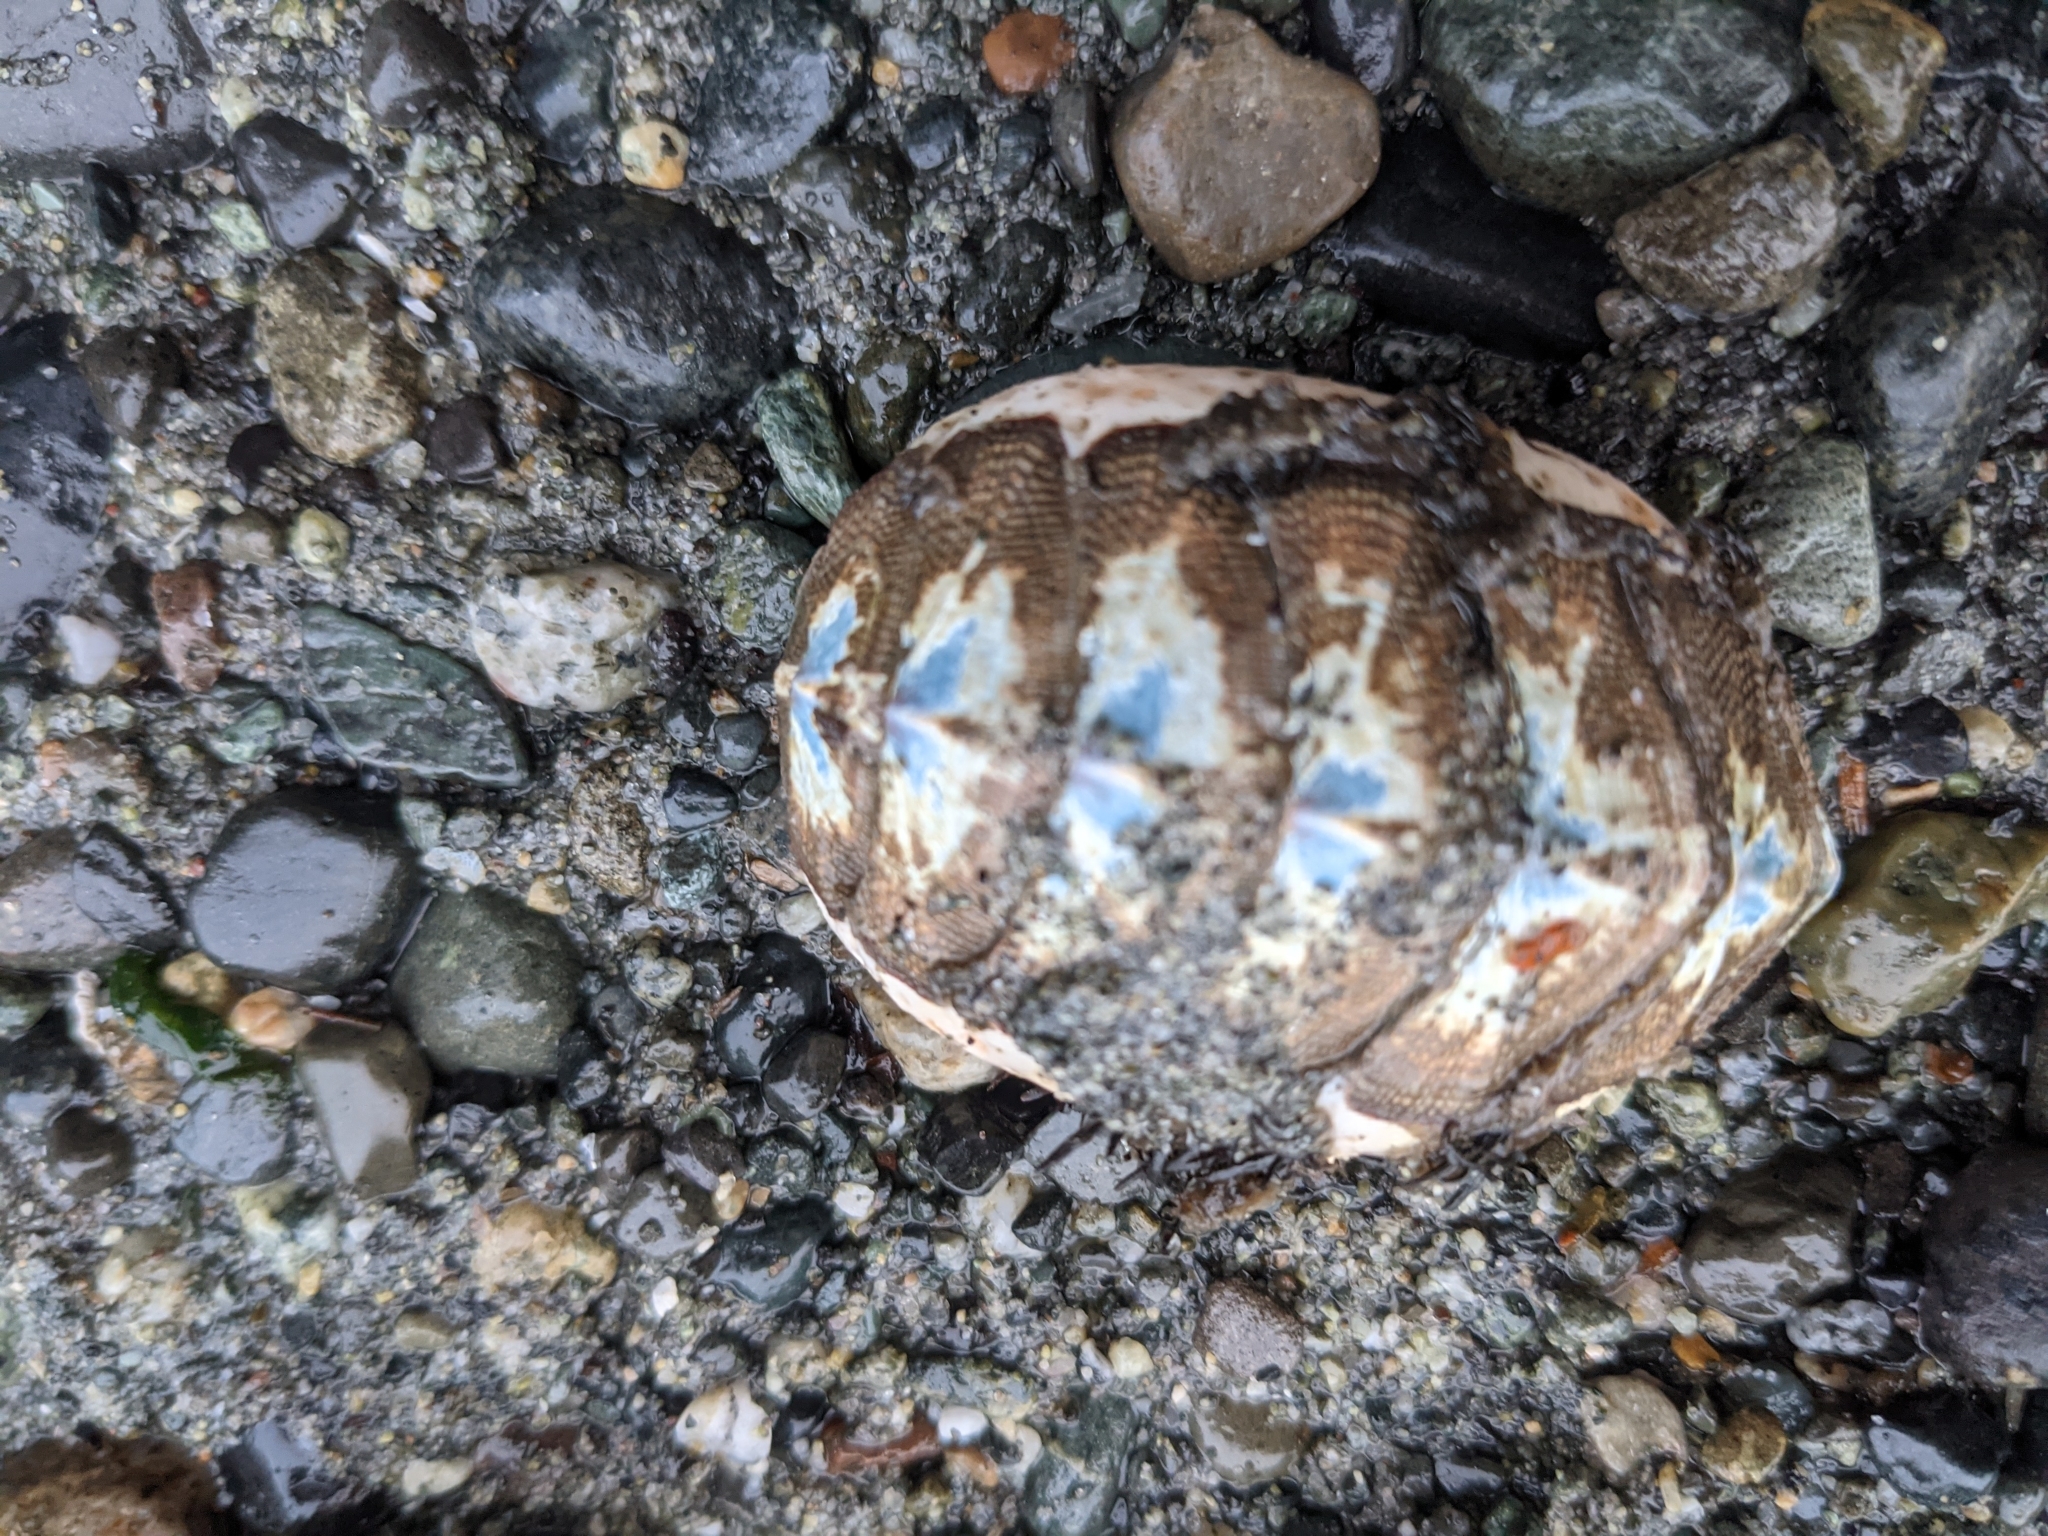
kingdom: Animalia
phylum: Mollusca
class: Polyplacophora
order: Chitonida
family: Mopaliidae
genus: Mopalia
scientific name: Mopalia muscosa
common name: Mossy chiton
